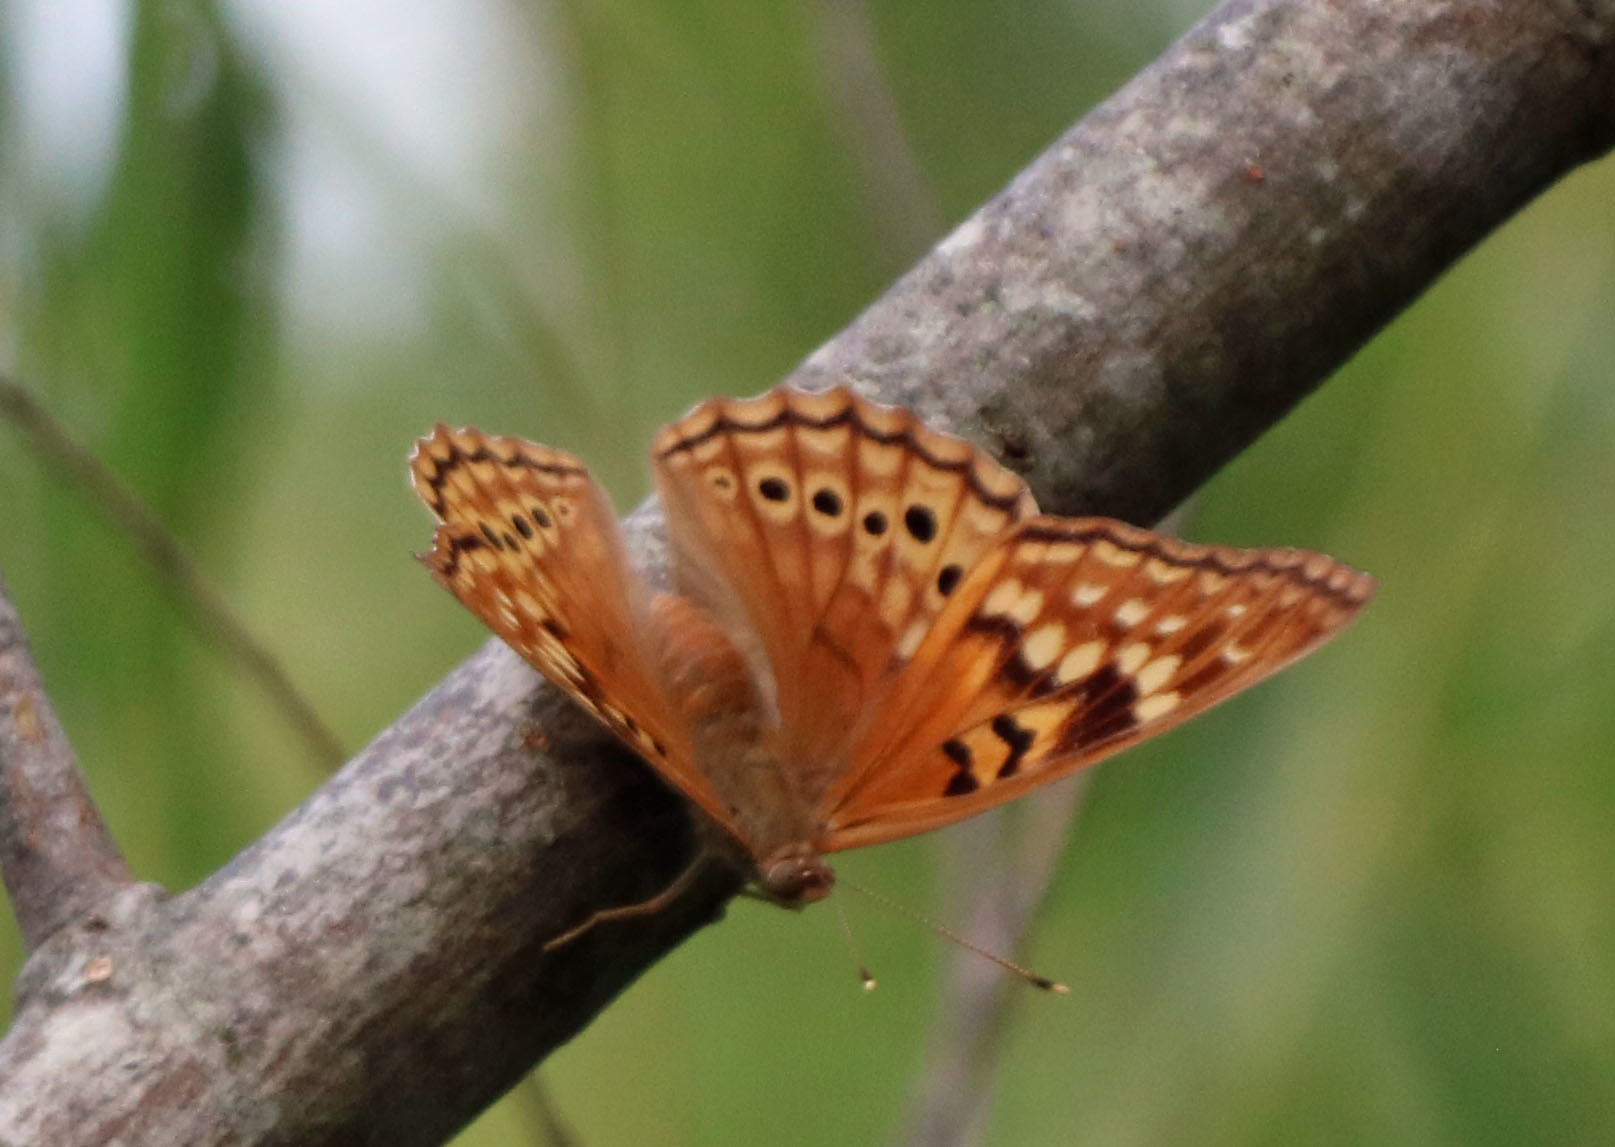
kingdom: Animalia
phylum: Arthropoda
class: Insecta
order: Lepidoptera
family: Nymphalidae
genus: Asterocampa
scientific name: Asterocampa clyton
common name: Tawny emperor
